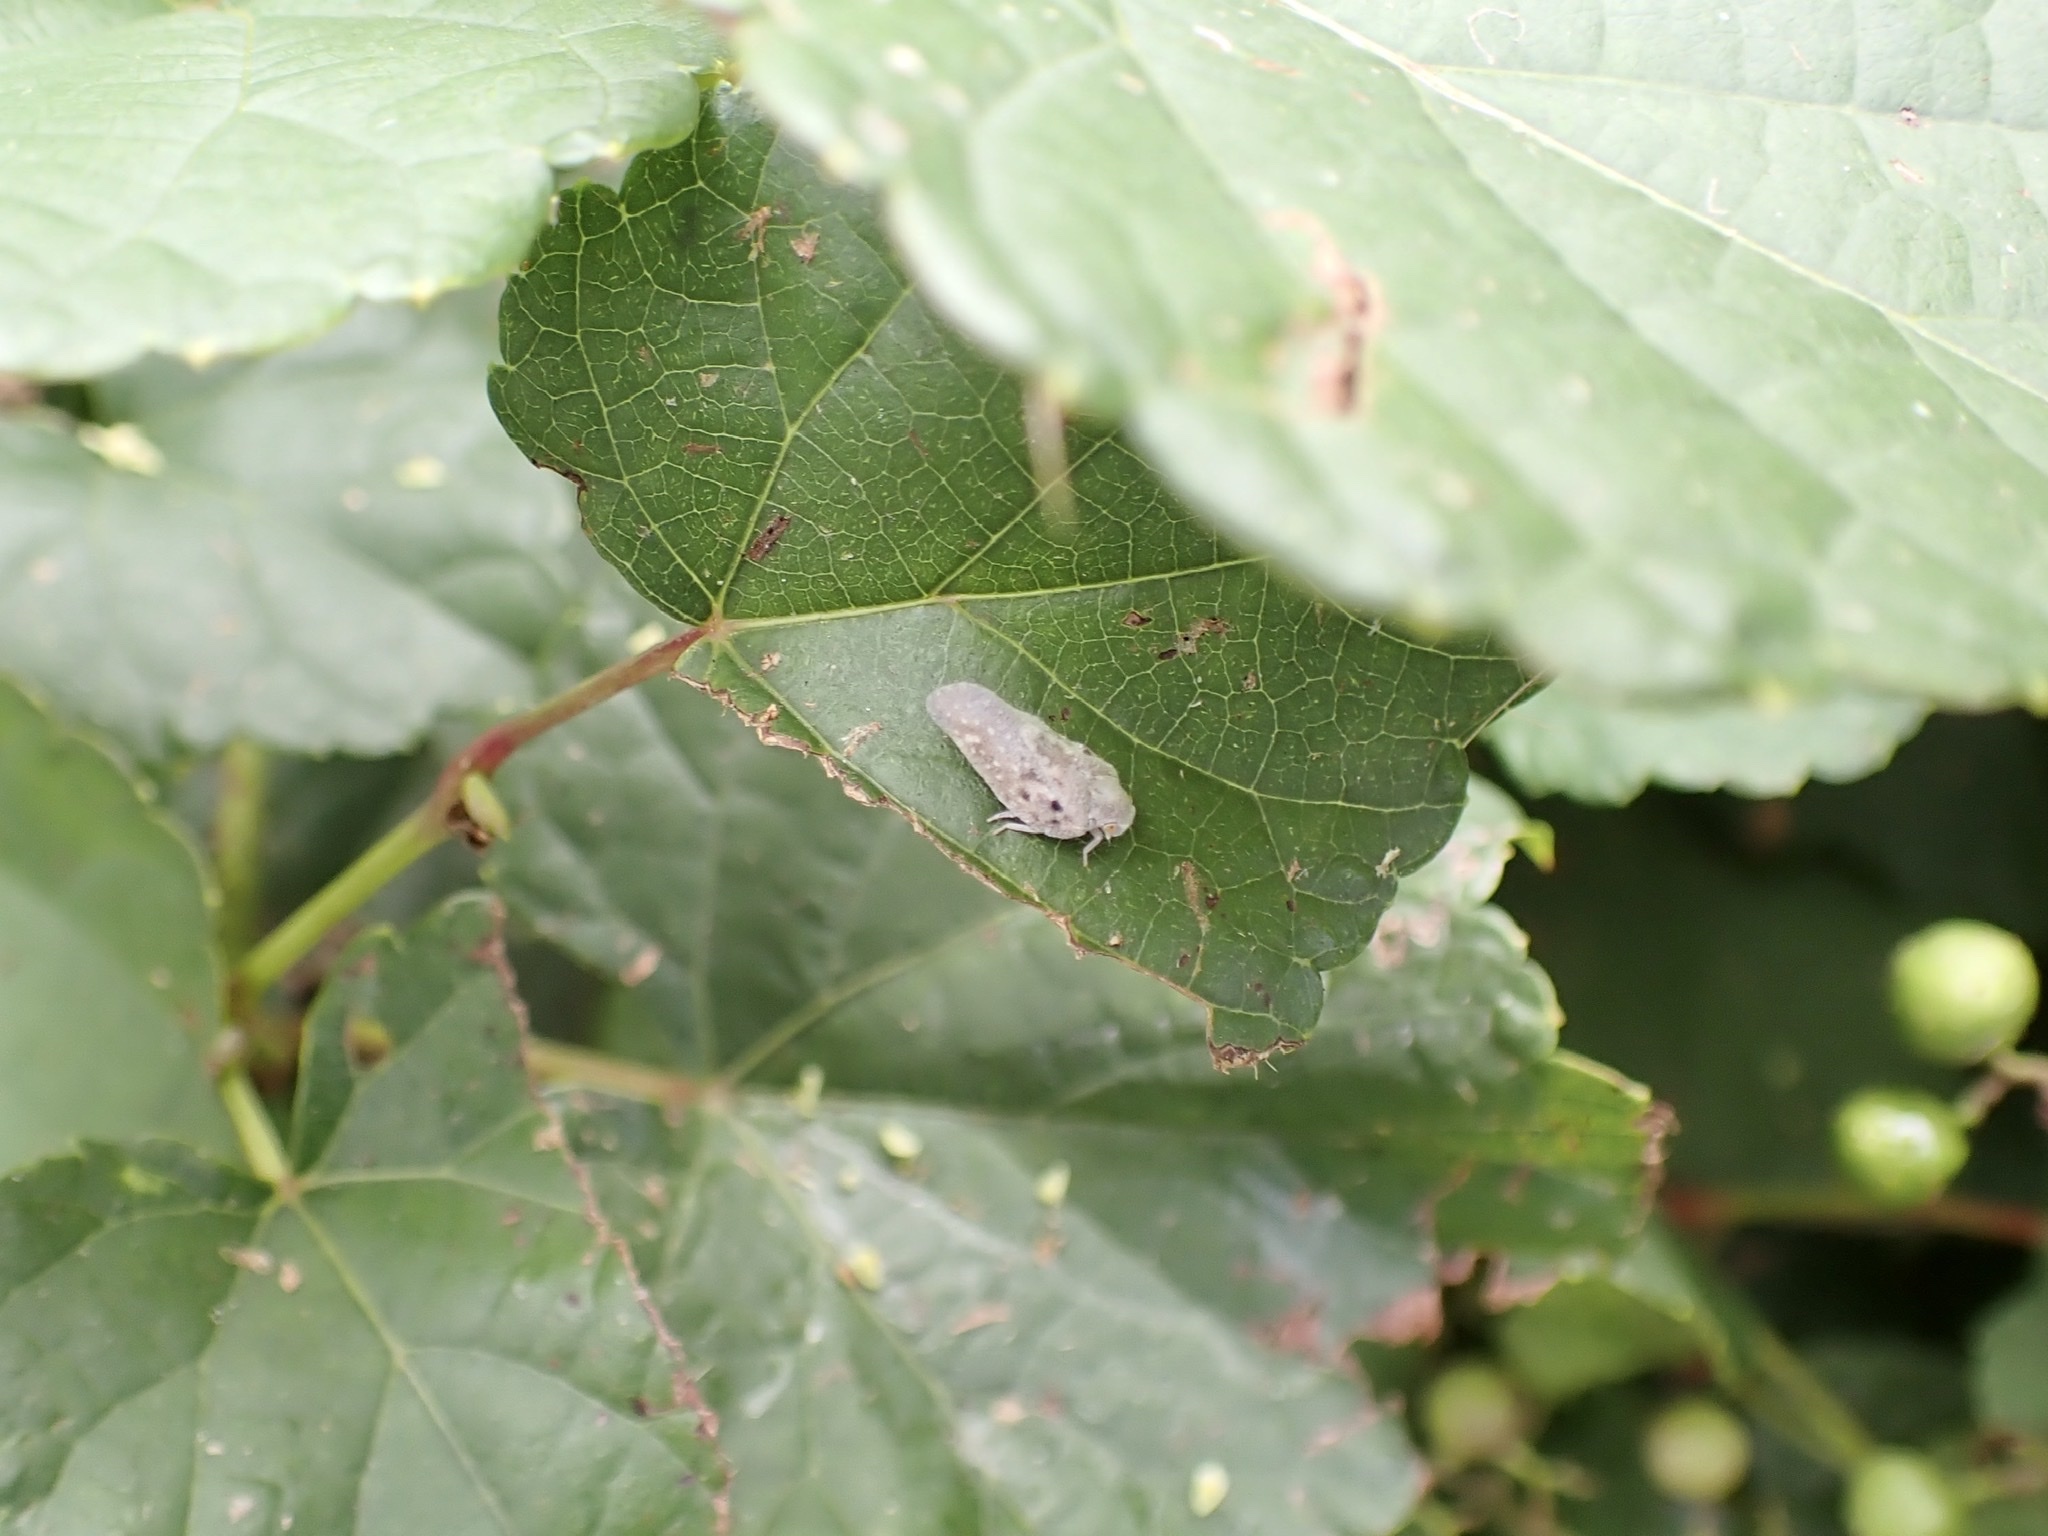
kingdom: Animalia
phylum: Arthropoda
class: Insecta
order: Hemiptera
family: Flatidae
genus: Metcalfa
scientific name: Metcalfa pruinosa
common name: Citrus flatid planthopper
